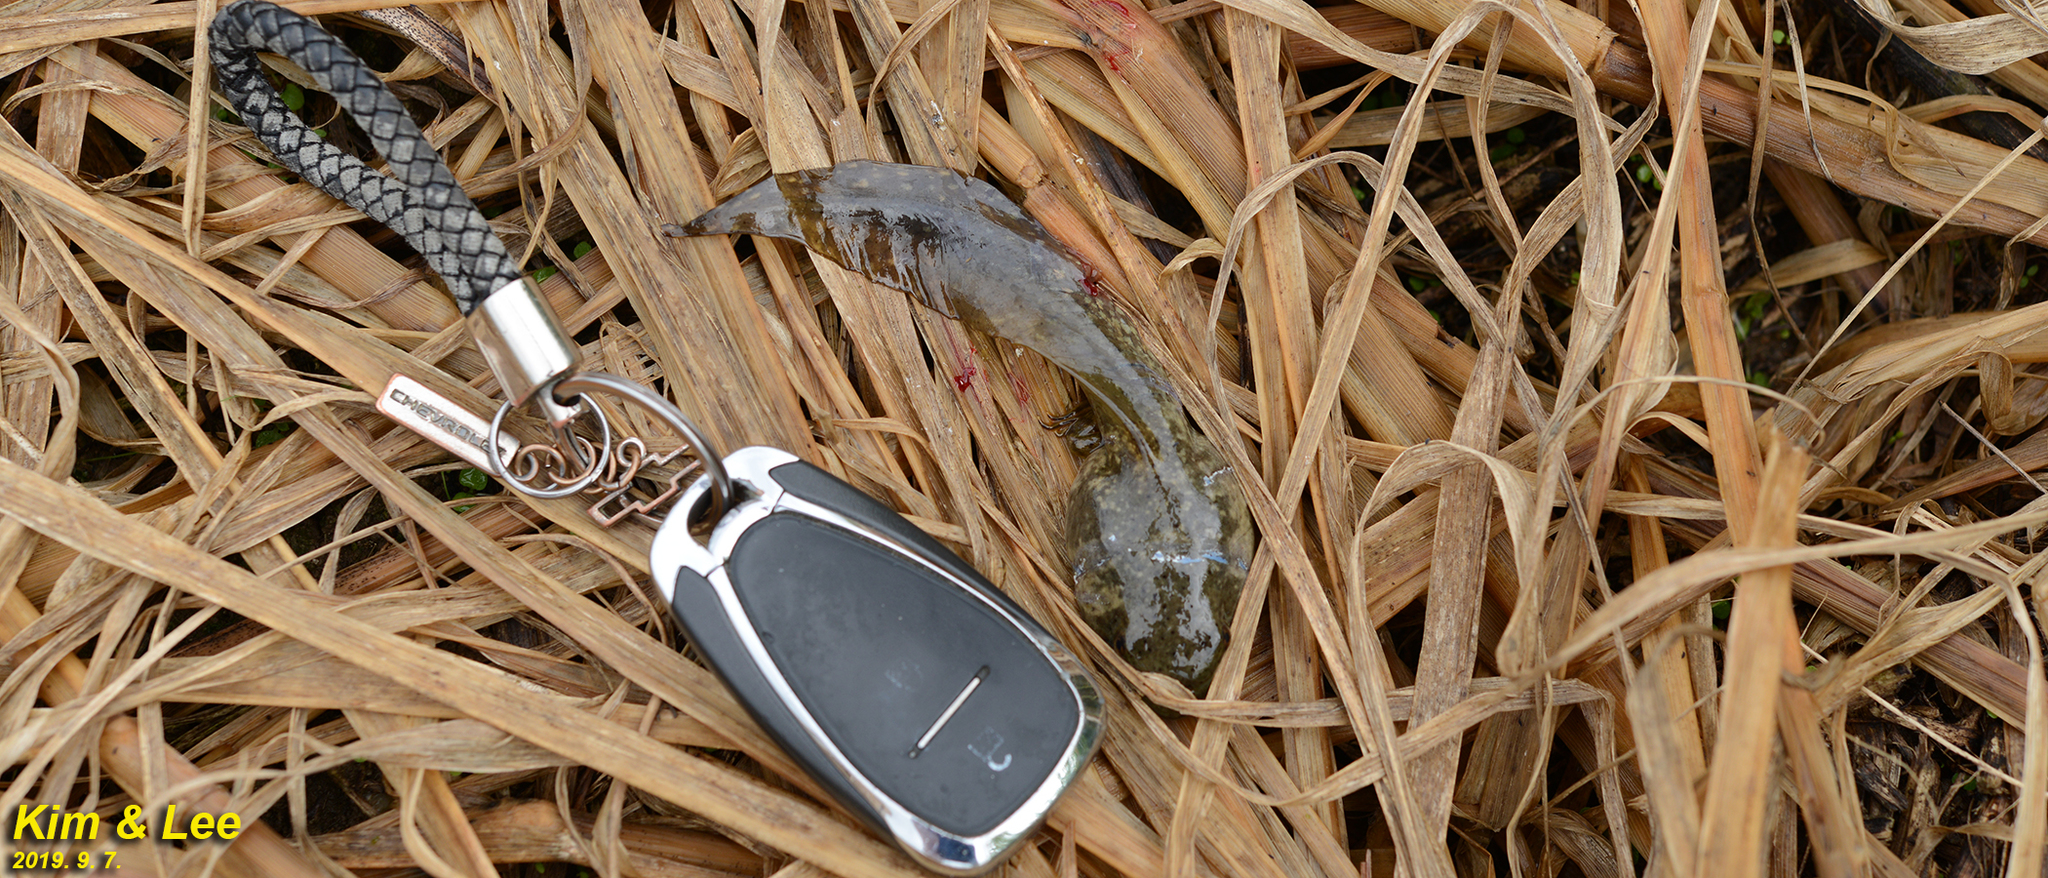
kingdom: Animalia
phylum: Chordata
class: Amphibia
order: Anura
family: Ranidae
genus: Lithobates
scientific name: Lithobates catesbeianus
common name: American bullfrog
